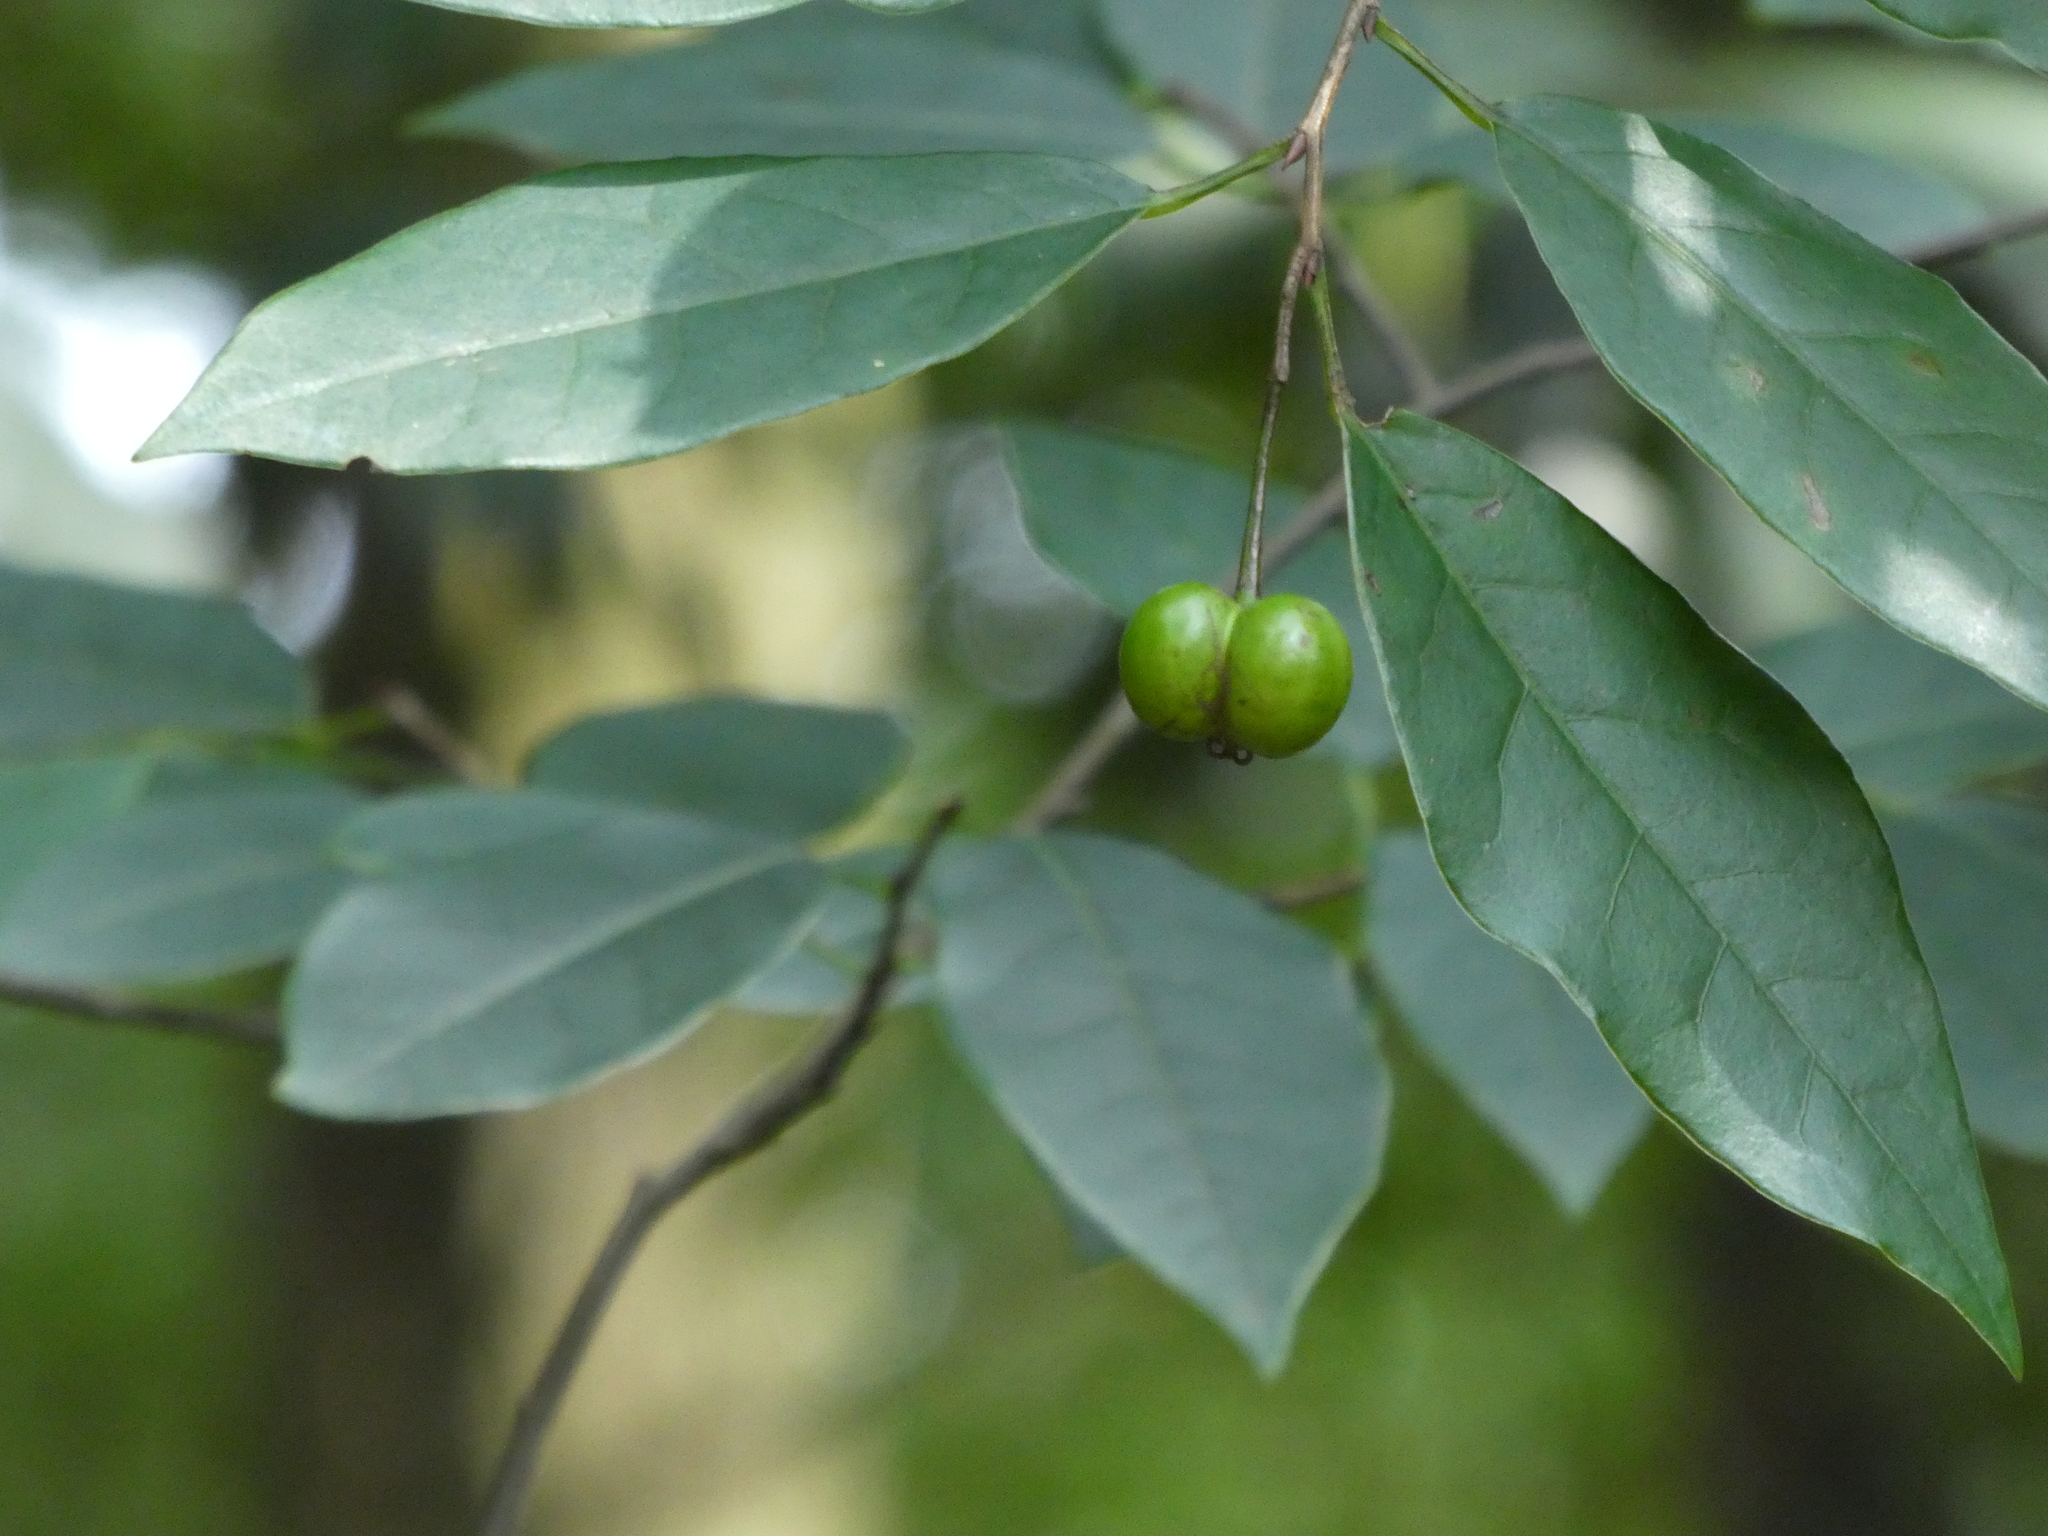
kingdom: Plantae
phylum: Tracheophyta
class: Magnoliopsida
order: Malpighiales
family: Euphorbiaceae
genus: Neoshirakia
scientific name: Neoshirakia japonica
